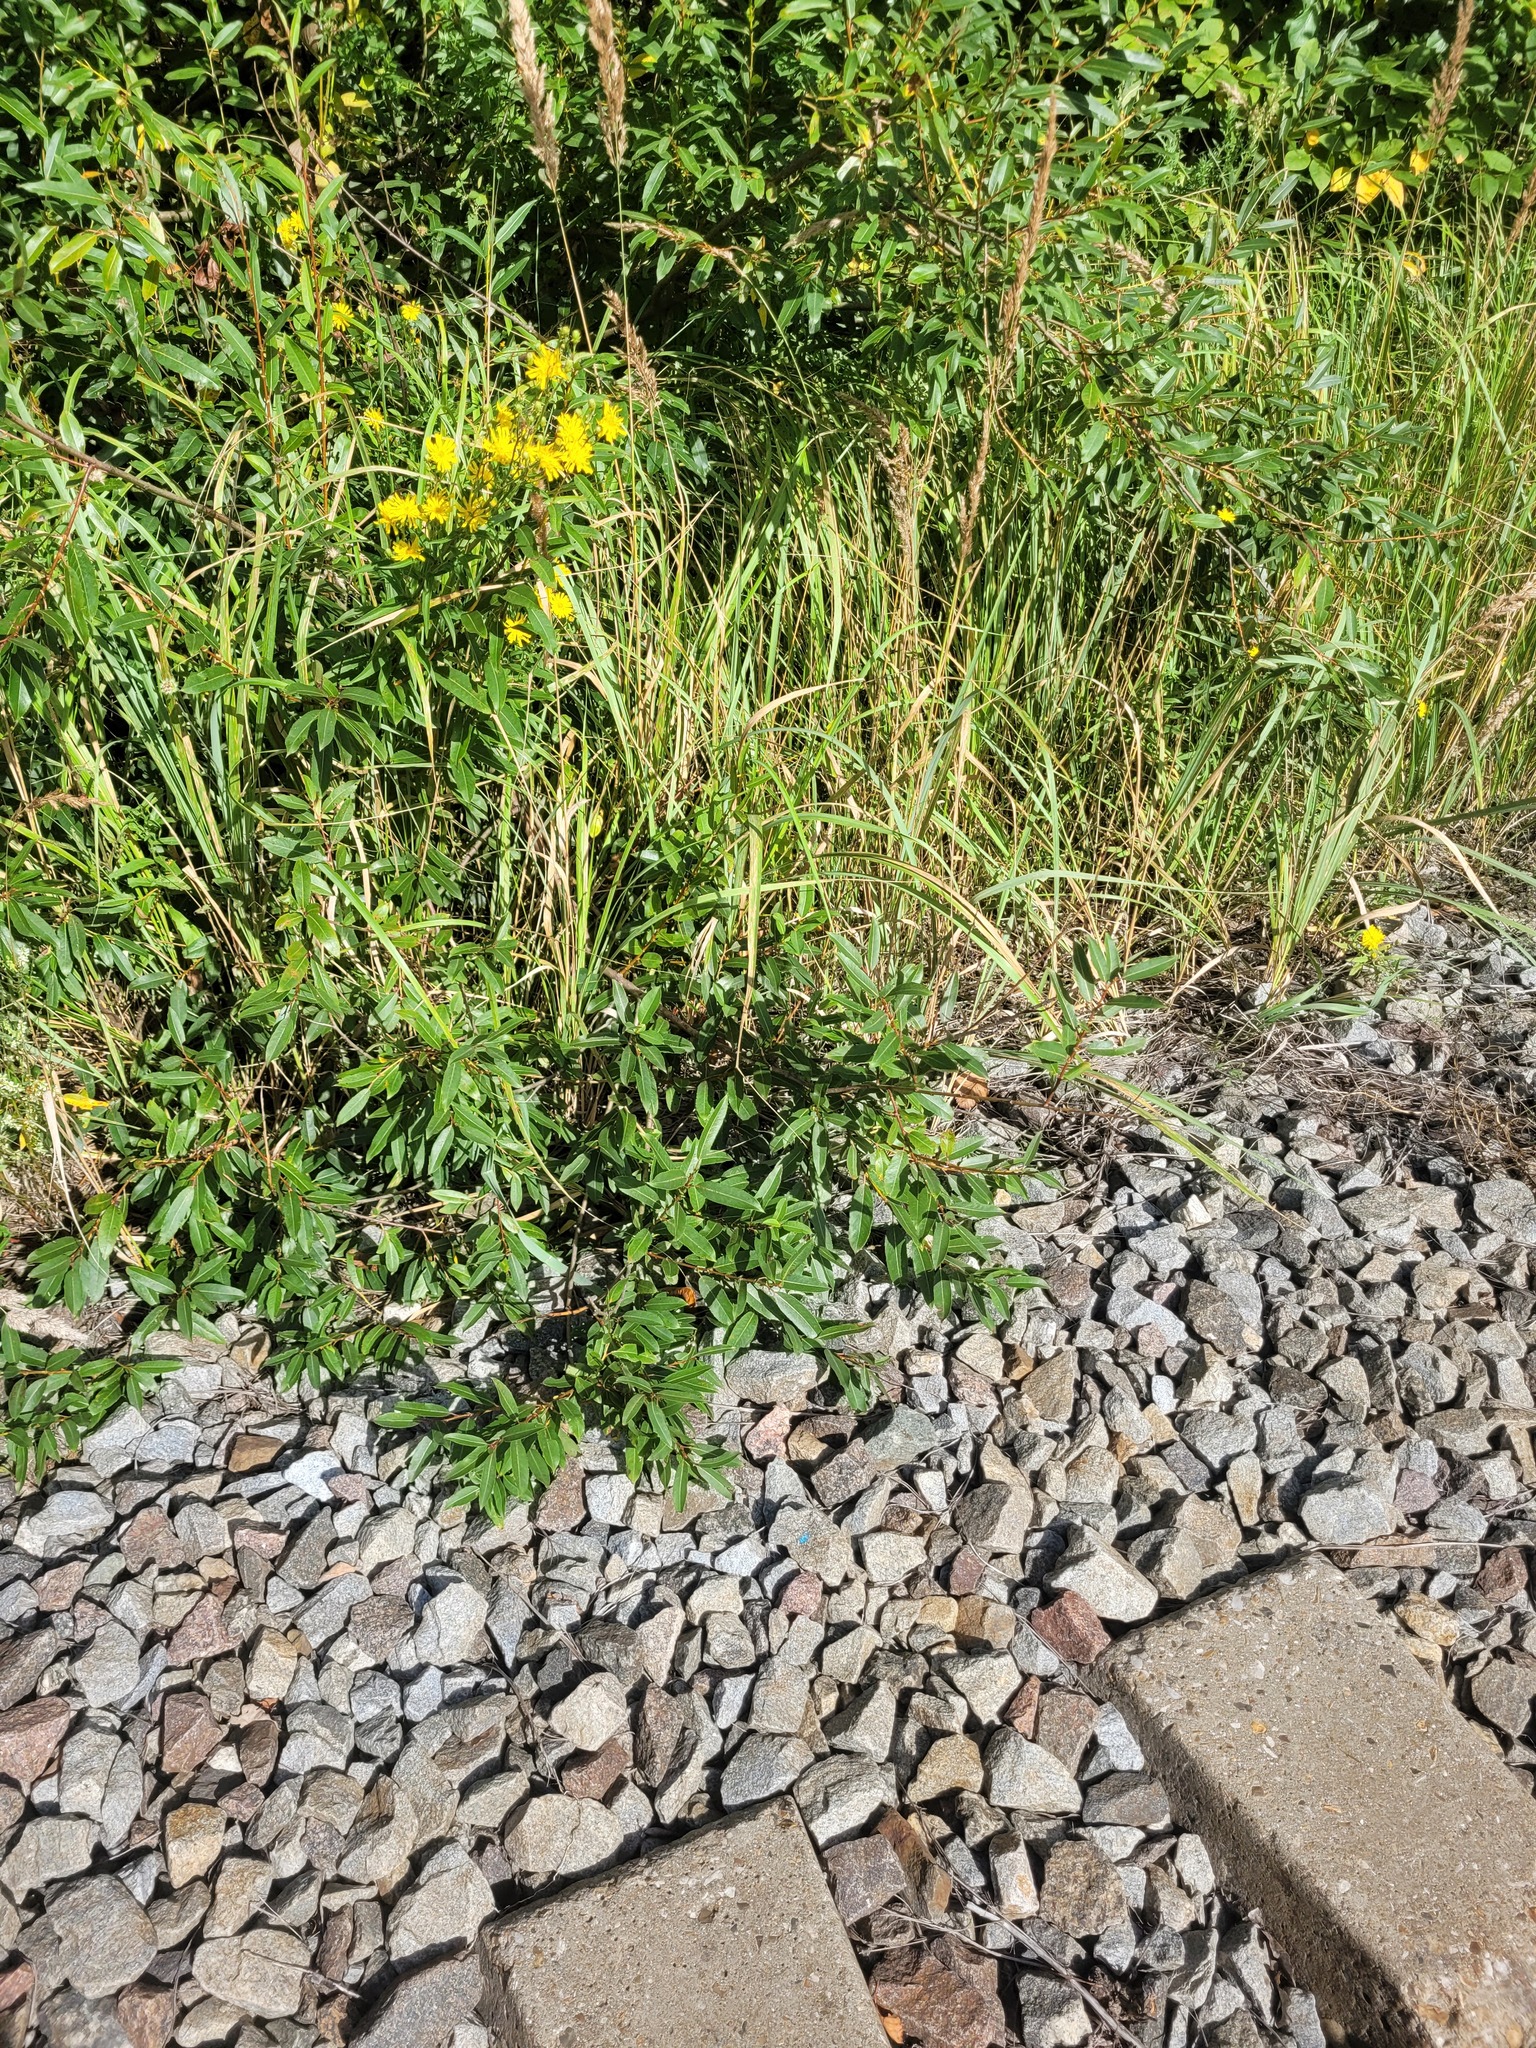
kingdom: Plantae
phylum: Tracheophyta
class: Magnoliopsida
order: Malpighiales
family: Salicaceae
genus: Salix
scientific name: Salix triandra
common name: Almond willow
